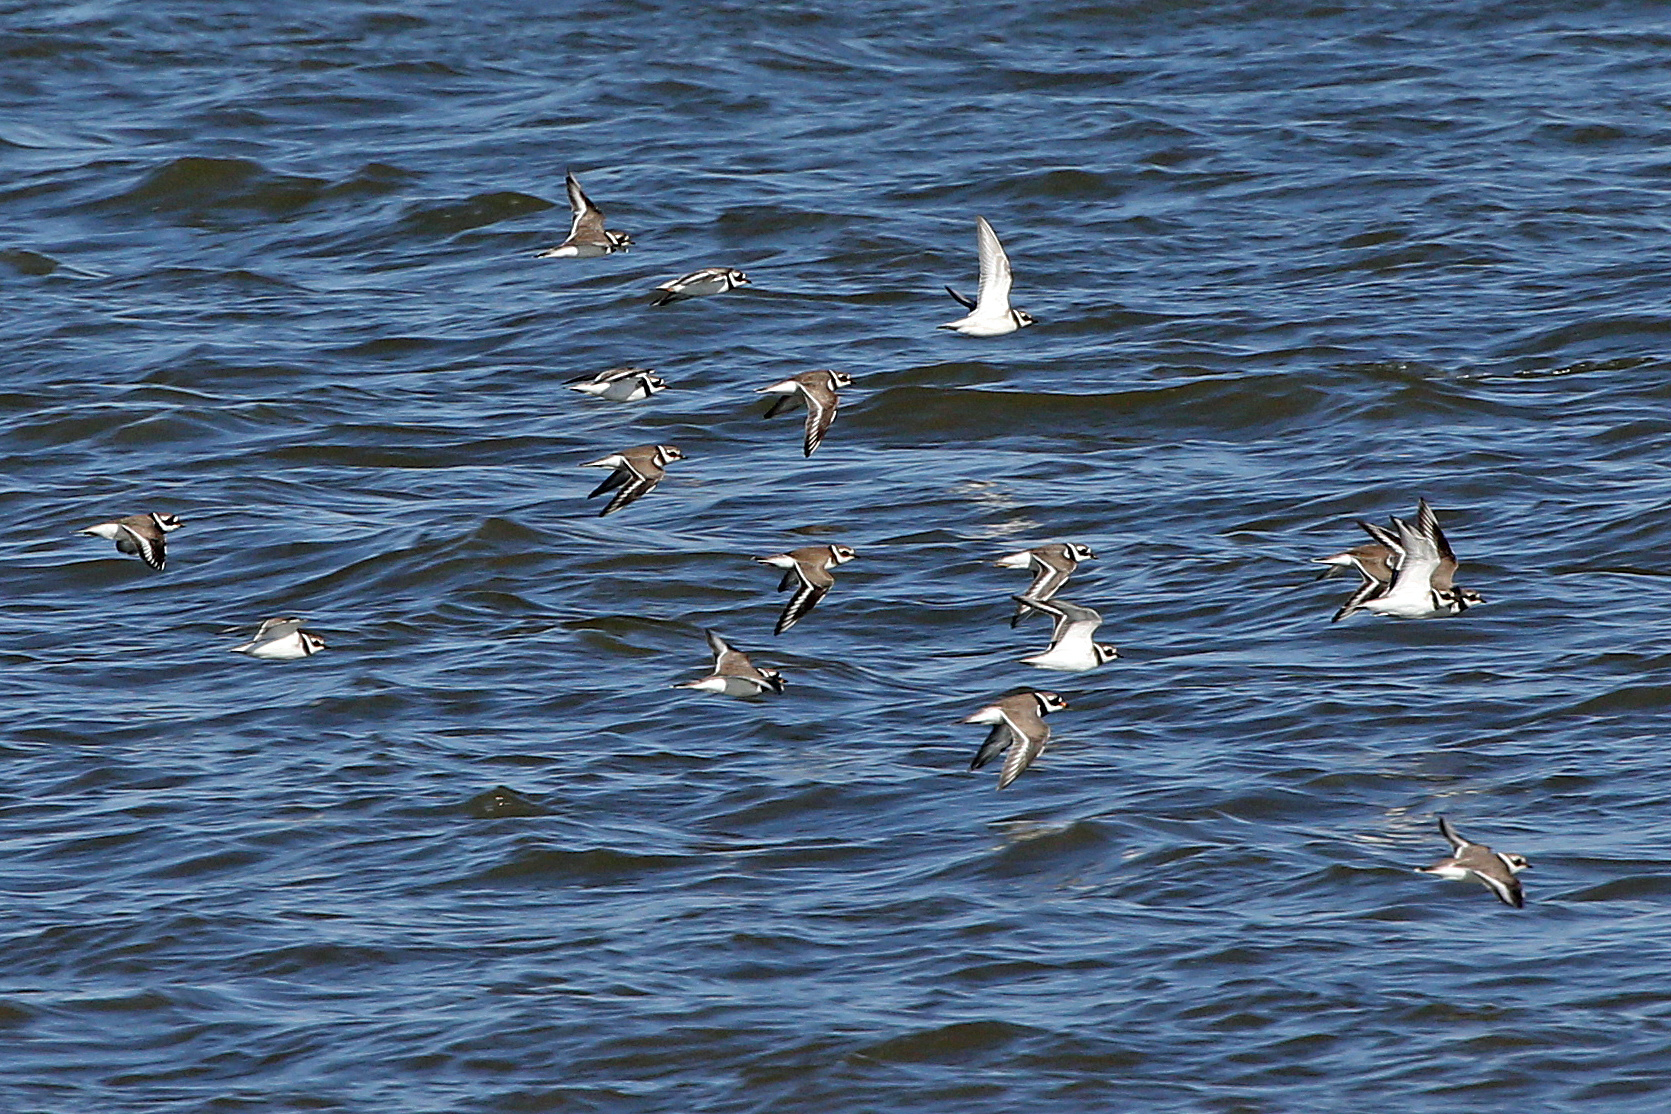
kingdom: Animalia
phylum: Chordata
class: Aves
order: Charadriiformes
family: Charadriidae
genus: Charadrius
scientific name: Charadrius hiaticula
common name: Common ringed plover
